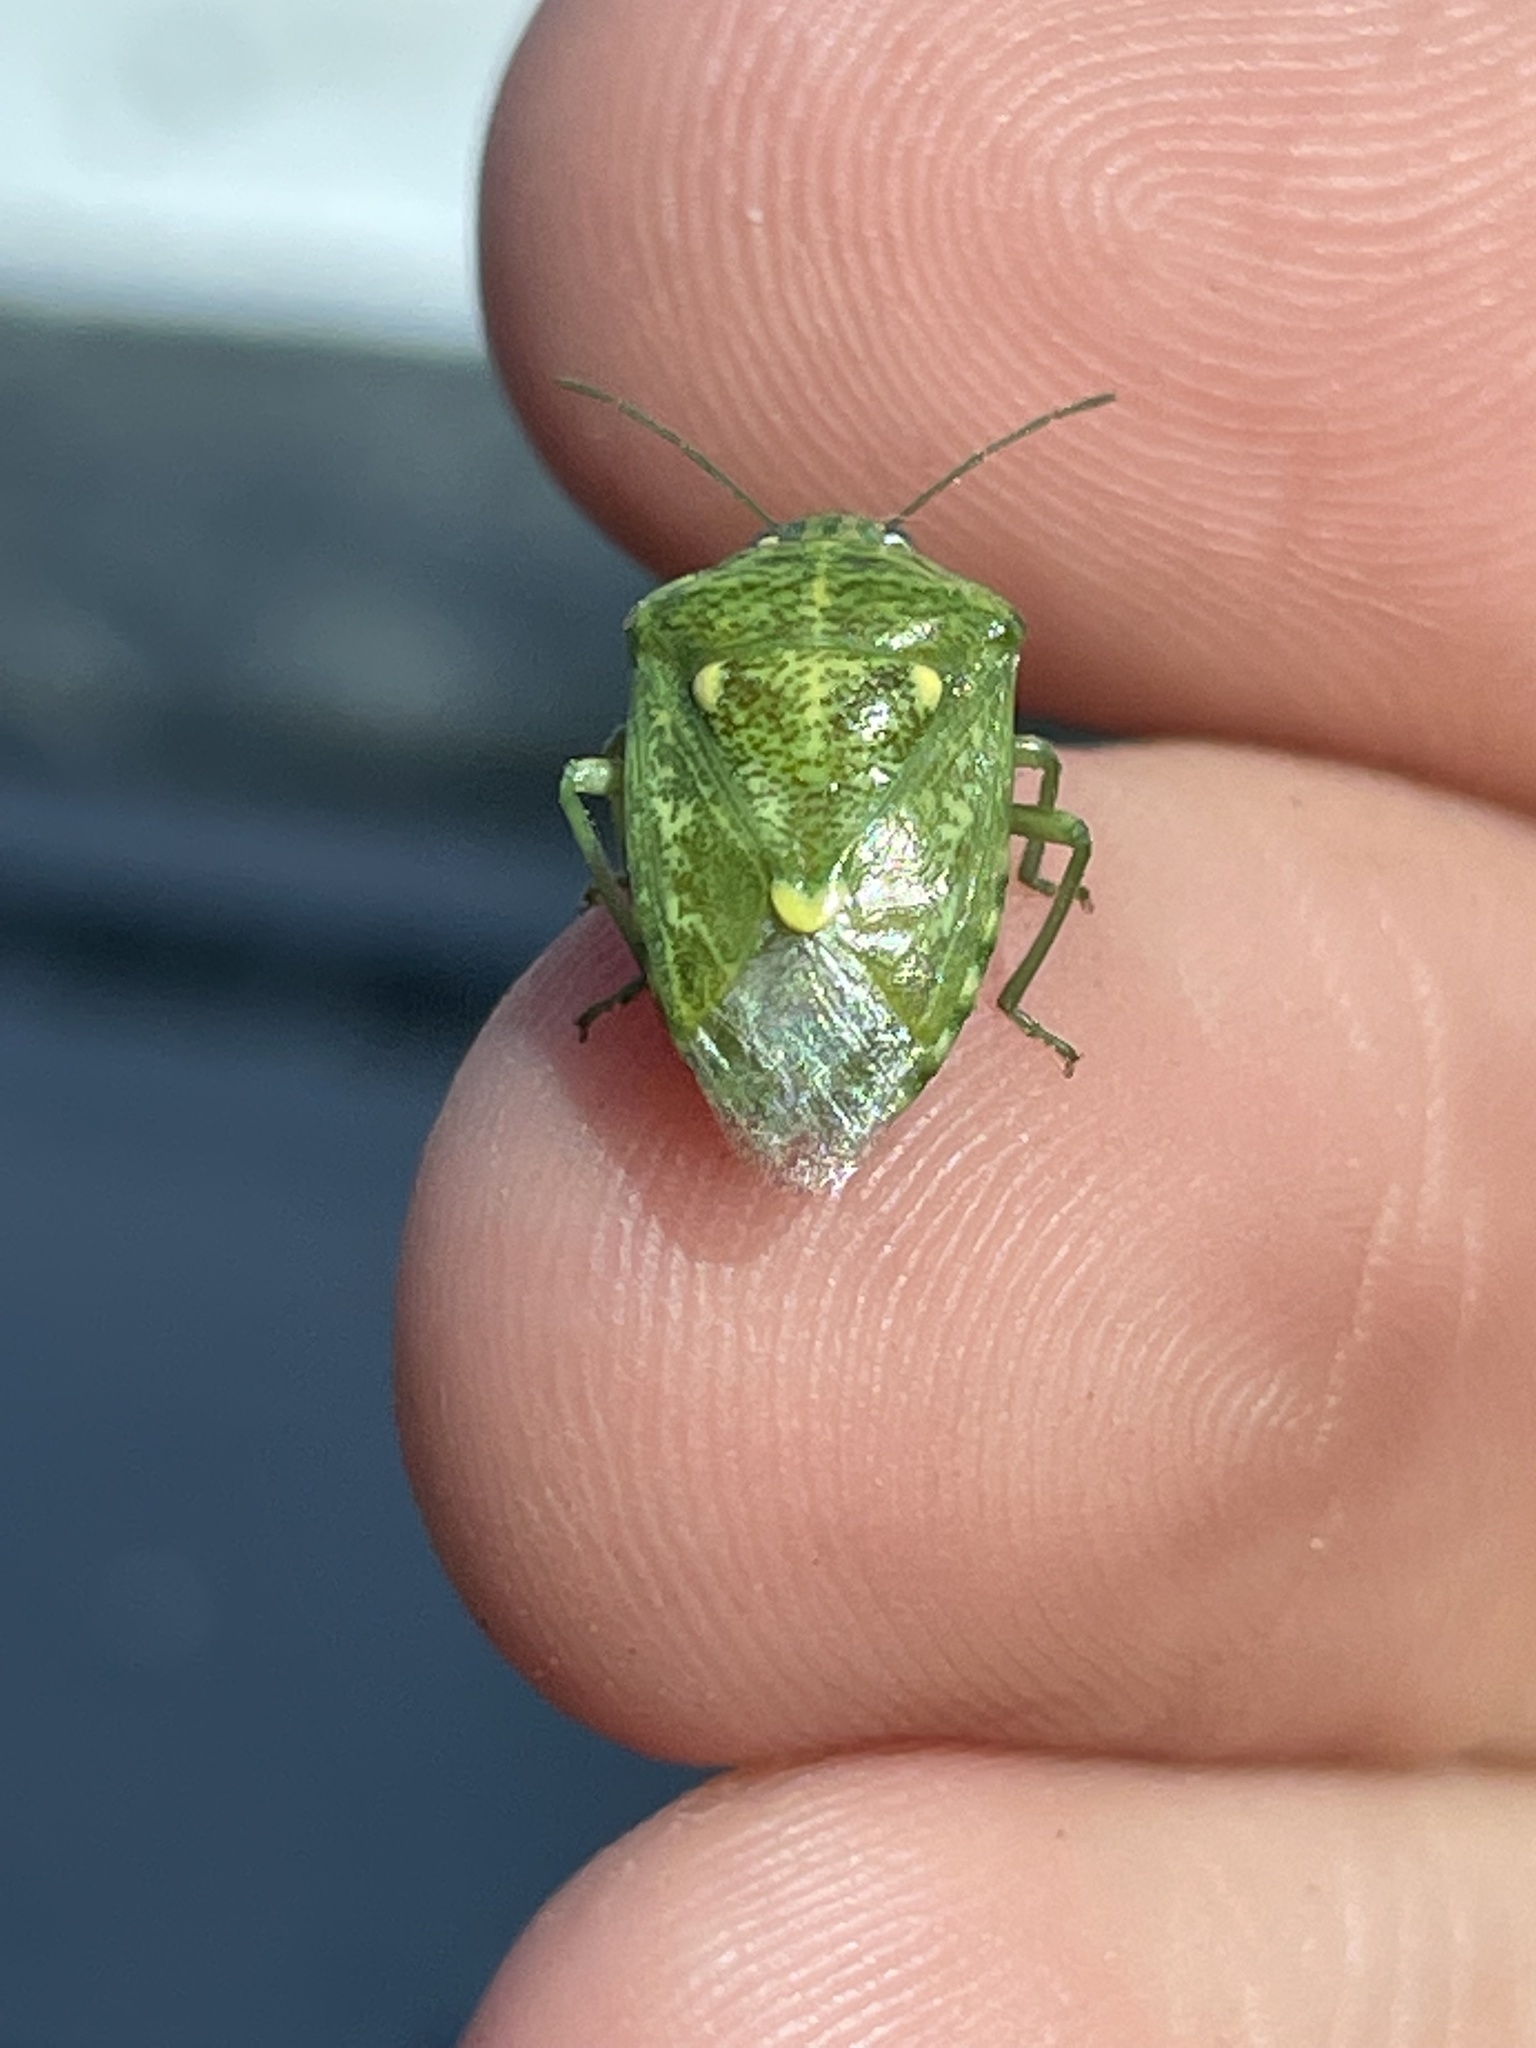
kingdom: Animalia
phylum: Arthropoda
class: Insecta
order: Hemiptera
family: Pentatomidae
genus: Banasa
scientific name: Banasa euchlora
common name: Cedar berry bug
